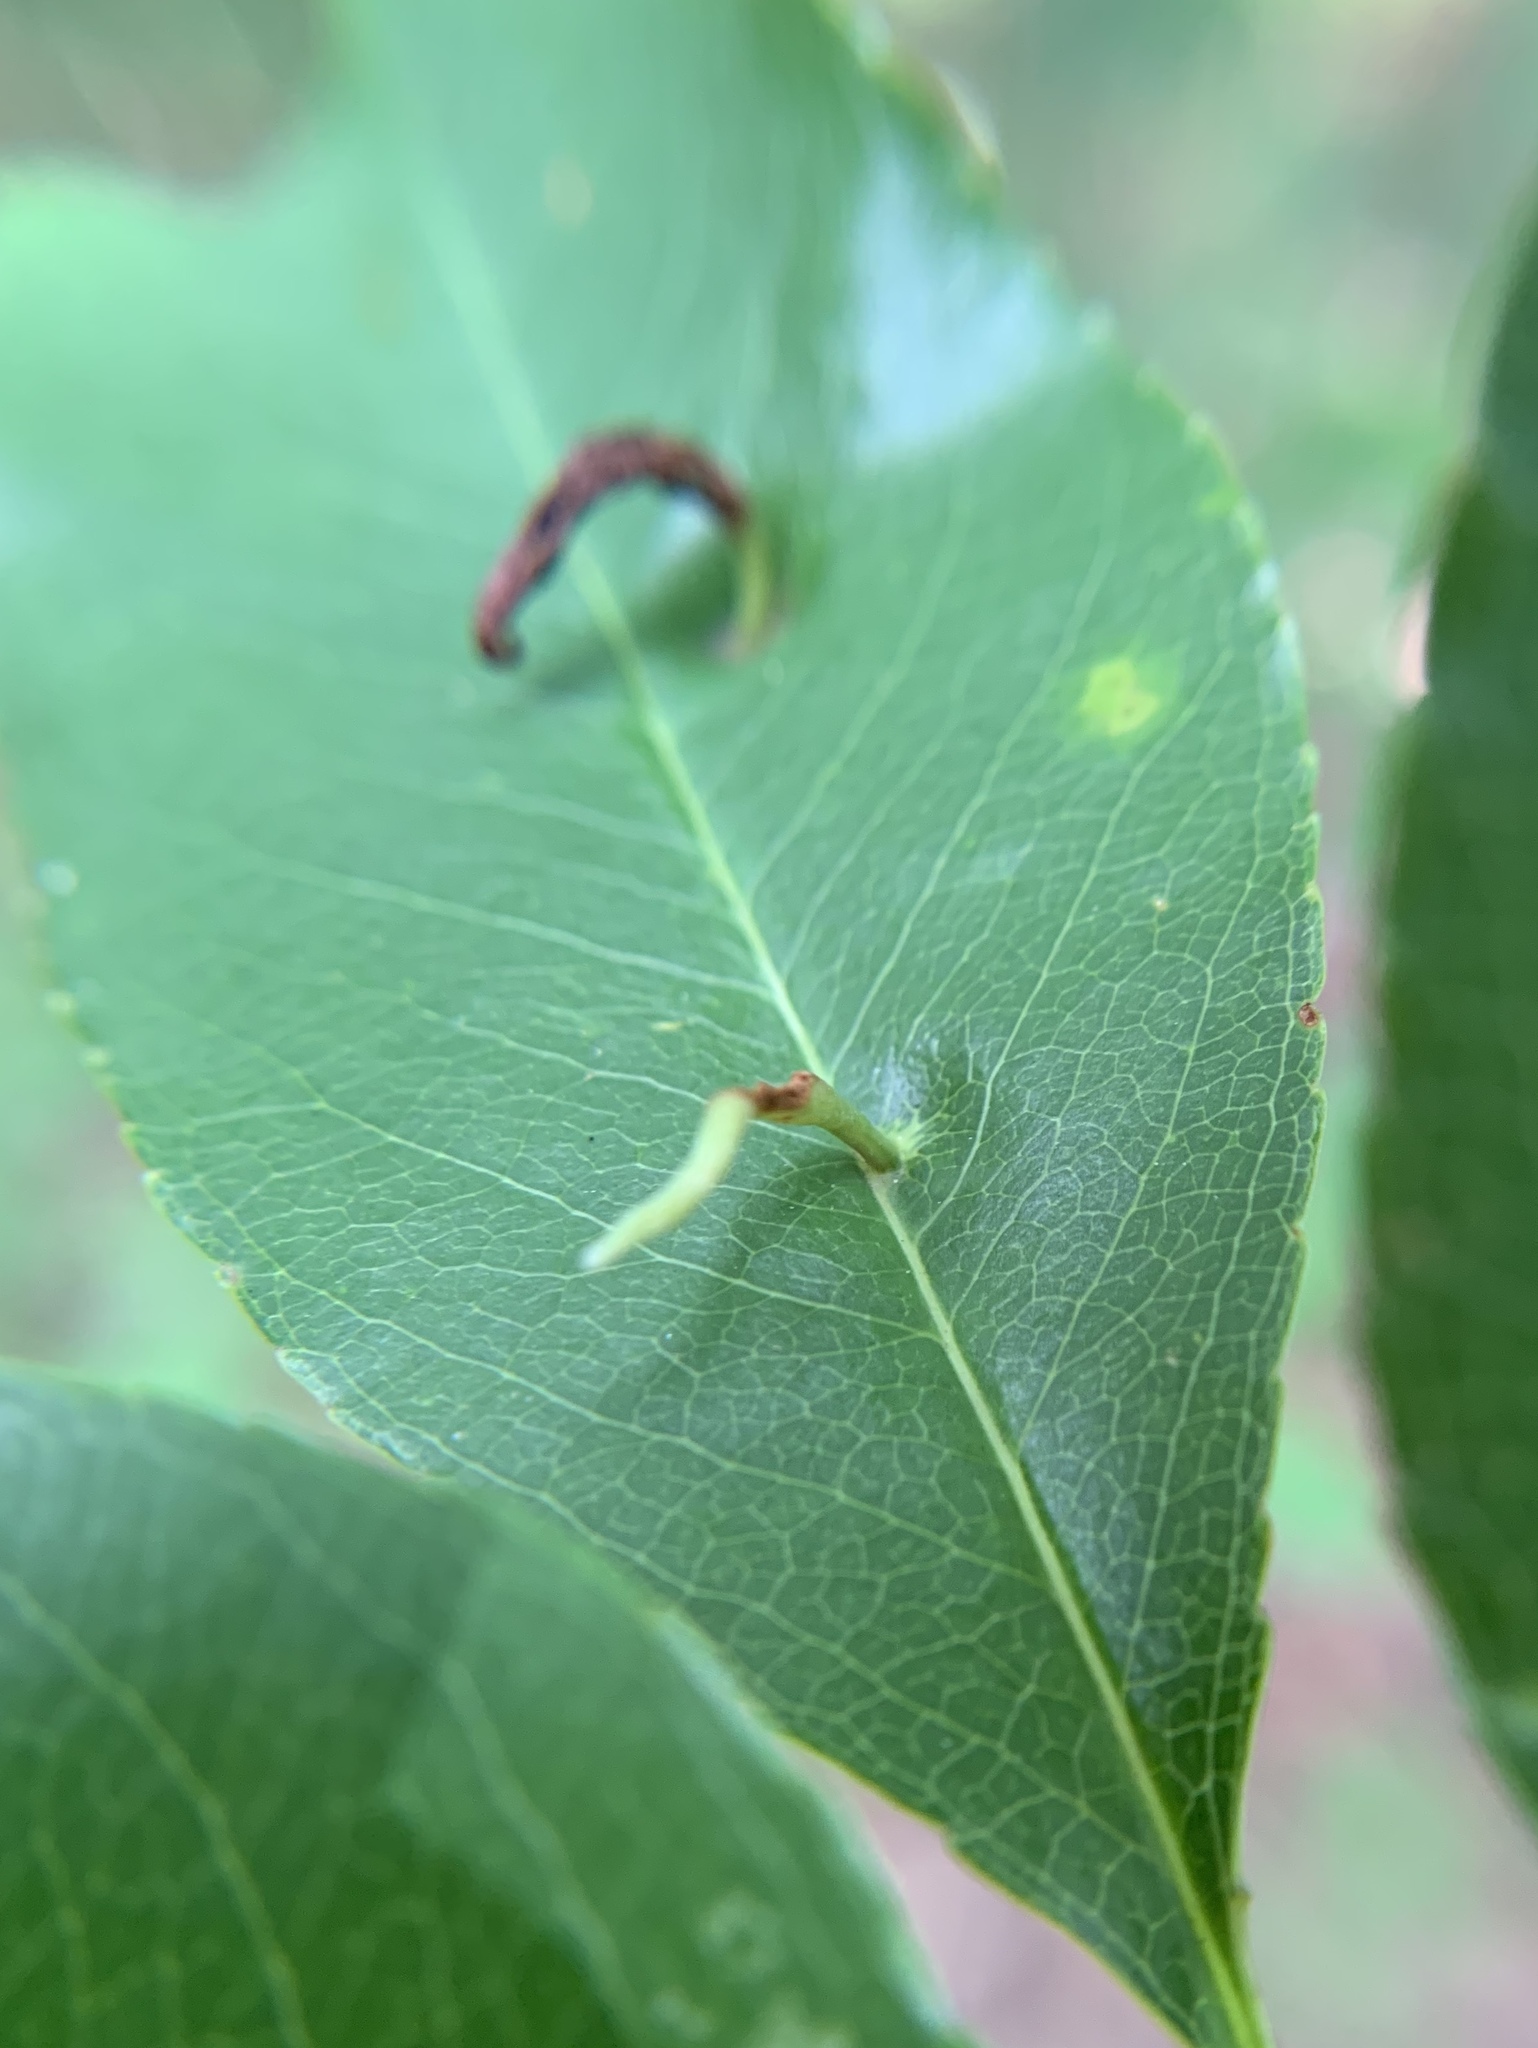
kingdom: Animalia
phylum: Arthropoda
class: Arachnida
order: Trombidiformes
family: Eriophyidae
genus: Eriophyes
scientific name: Eriophyes
